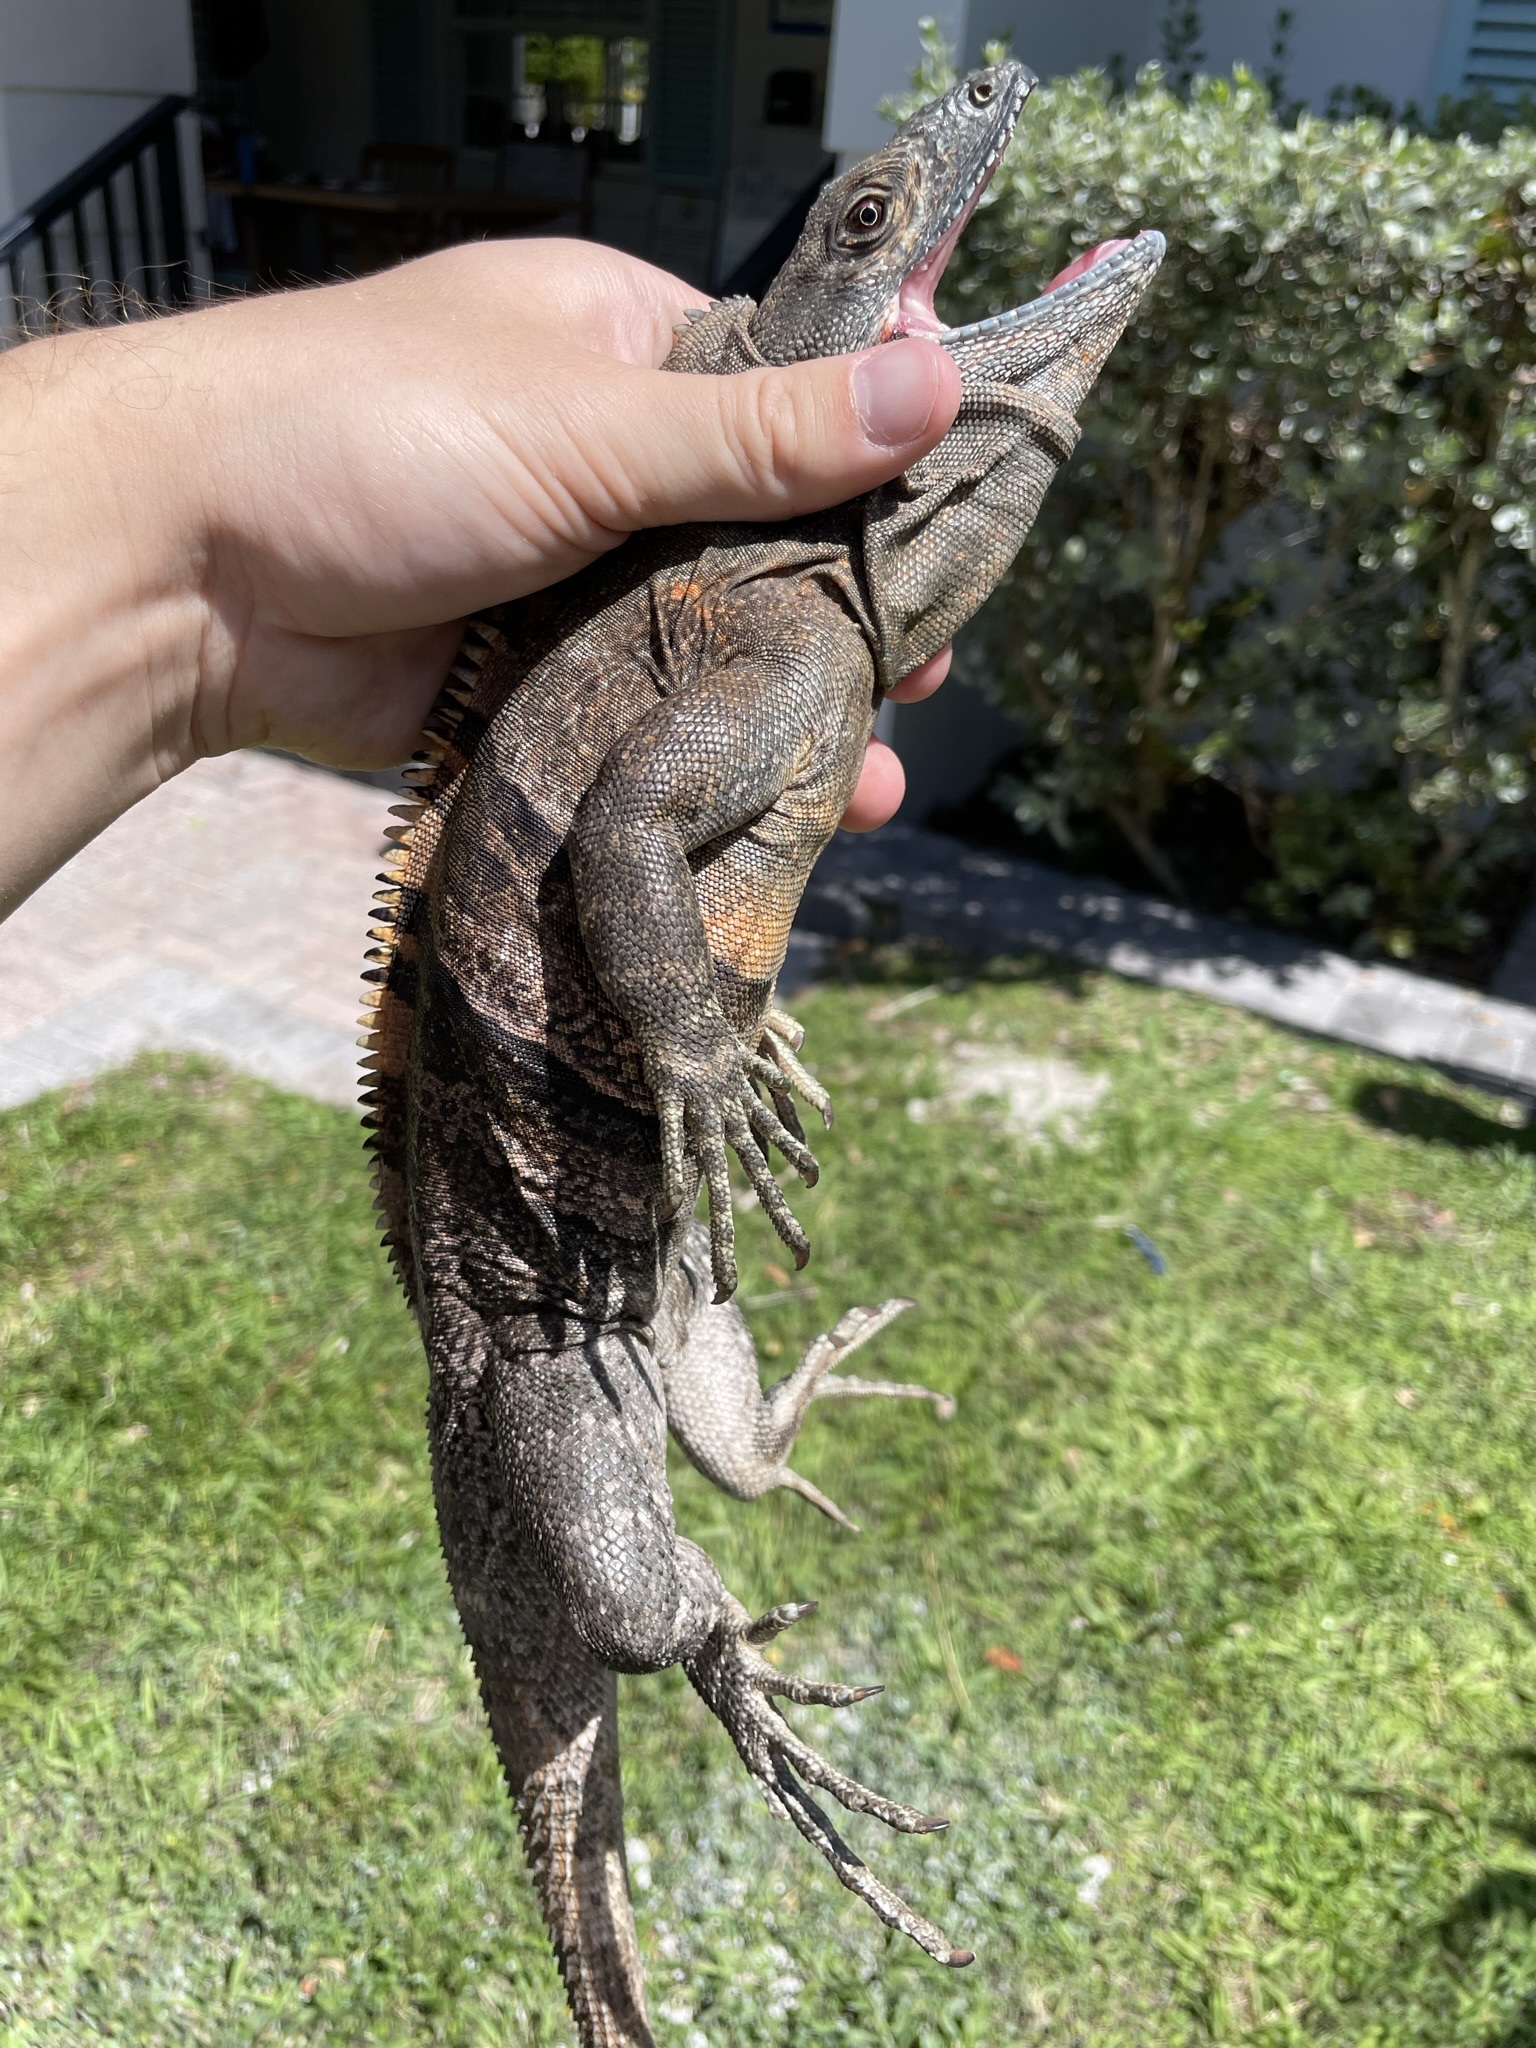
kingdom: Animalia
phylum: Chordata
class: Squamata
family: Iguanidae
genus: Ctenosaura
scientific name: Ctenosaura similis
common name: Black spiny-tailed iguana
